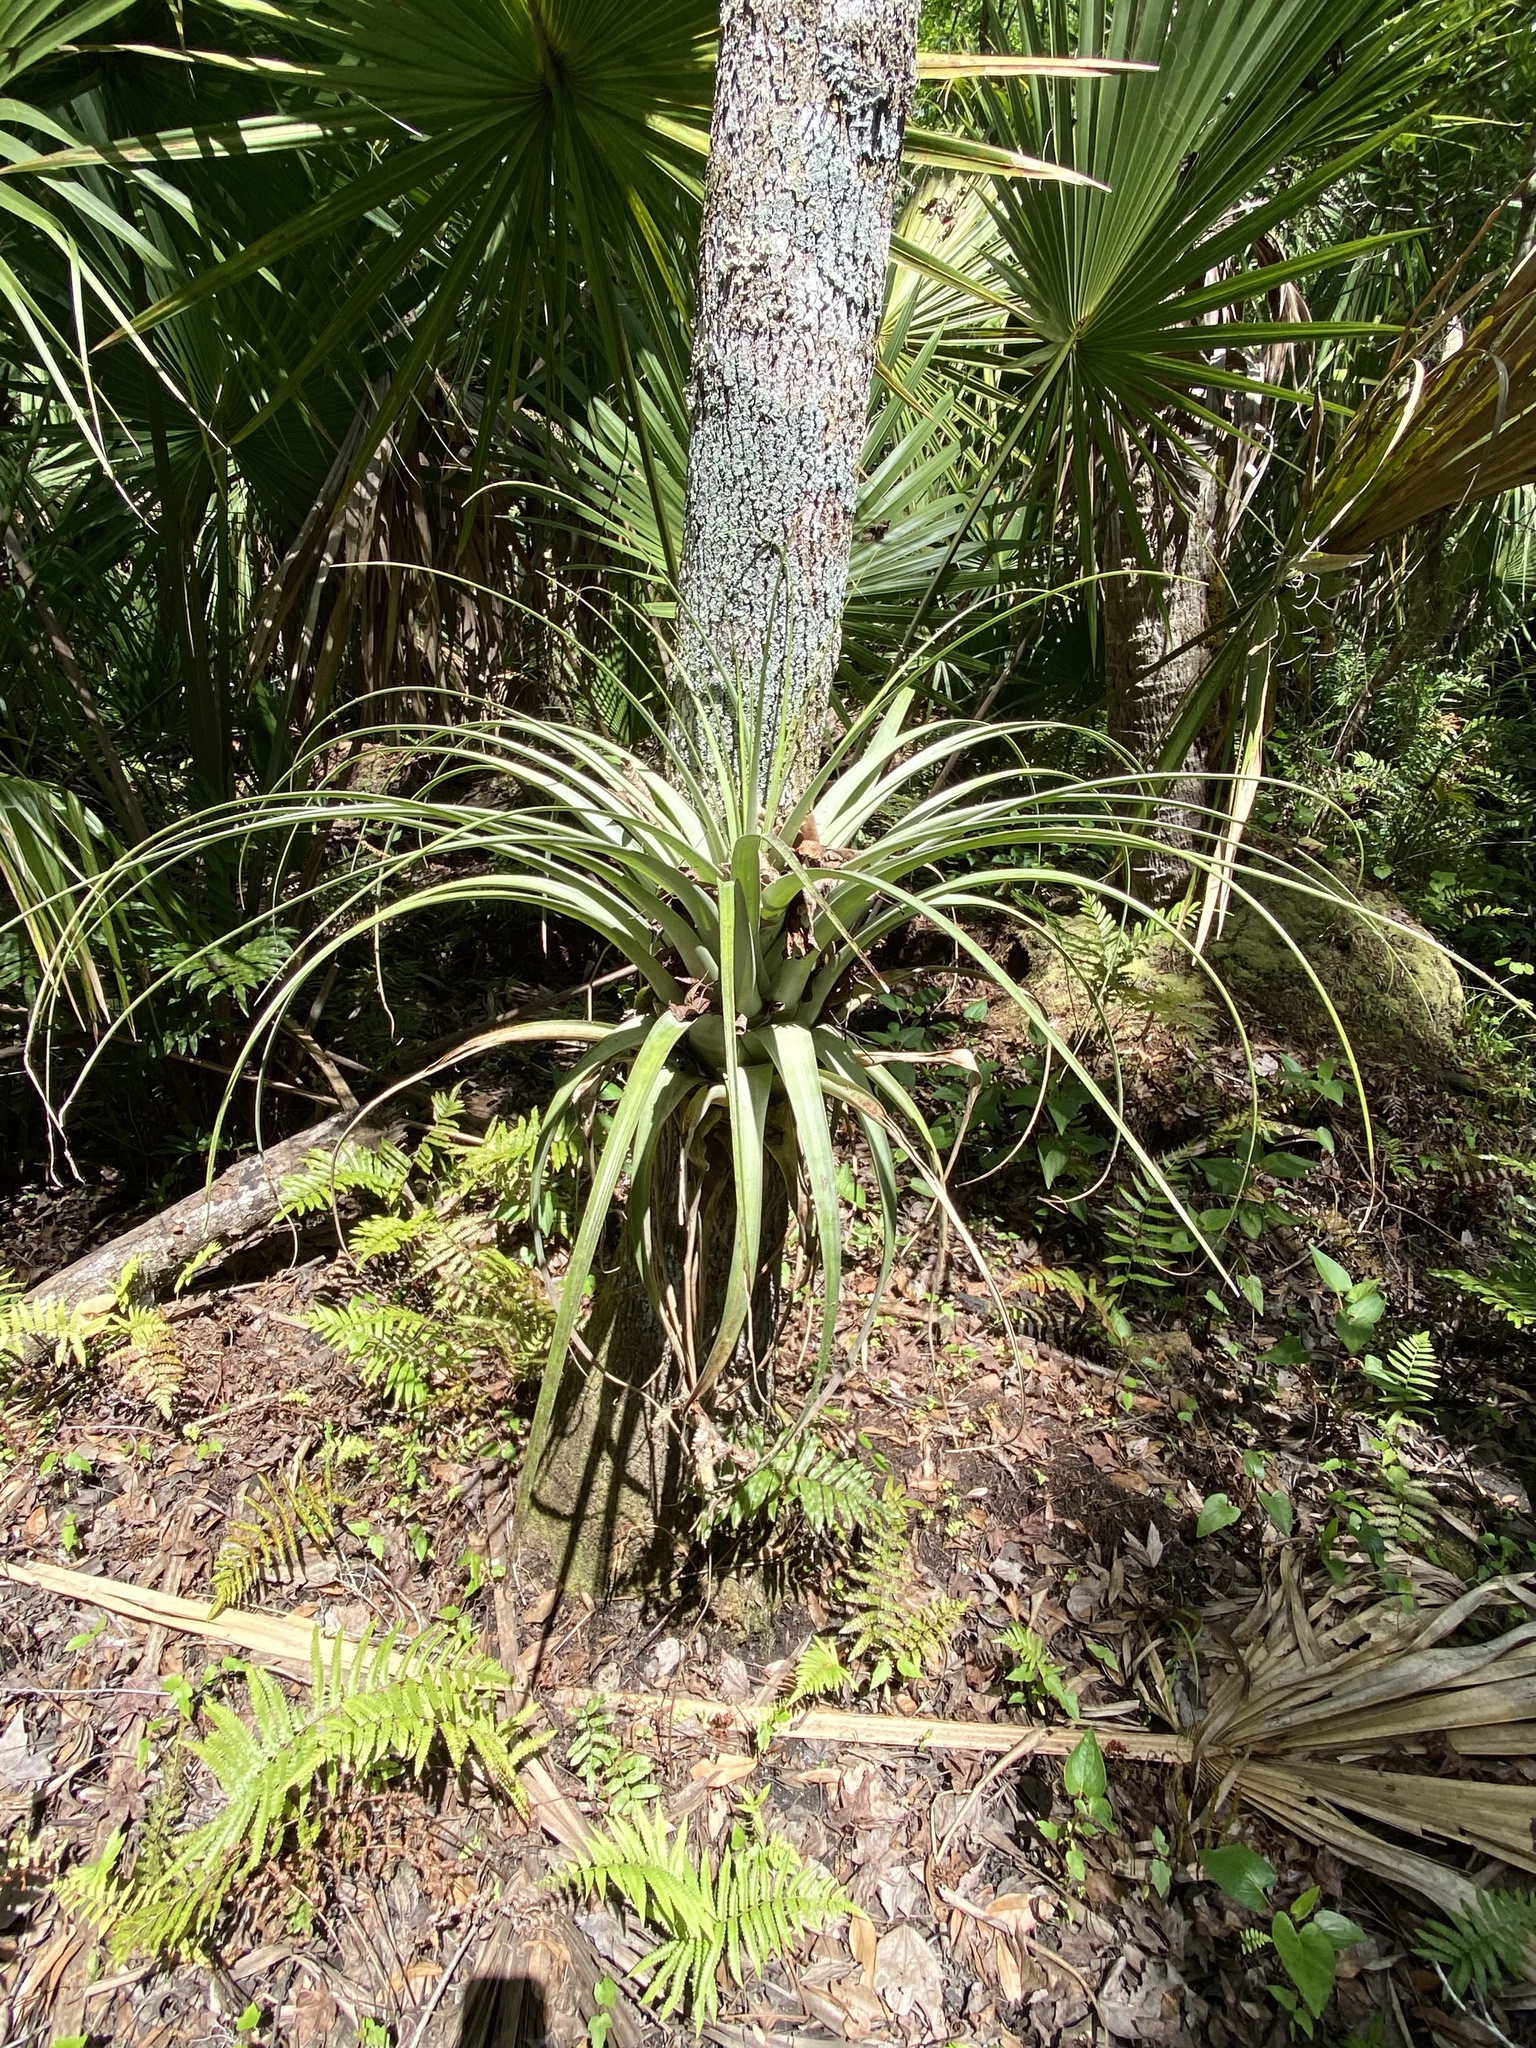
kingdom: Plantae
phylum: Tracheophyta
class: Liliopsida
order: Poales
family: Bromeliaceae
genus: Tillandsia
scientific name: Tillandsia utriculata
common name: Wild pine
